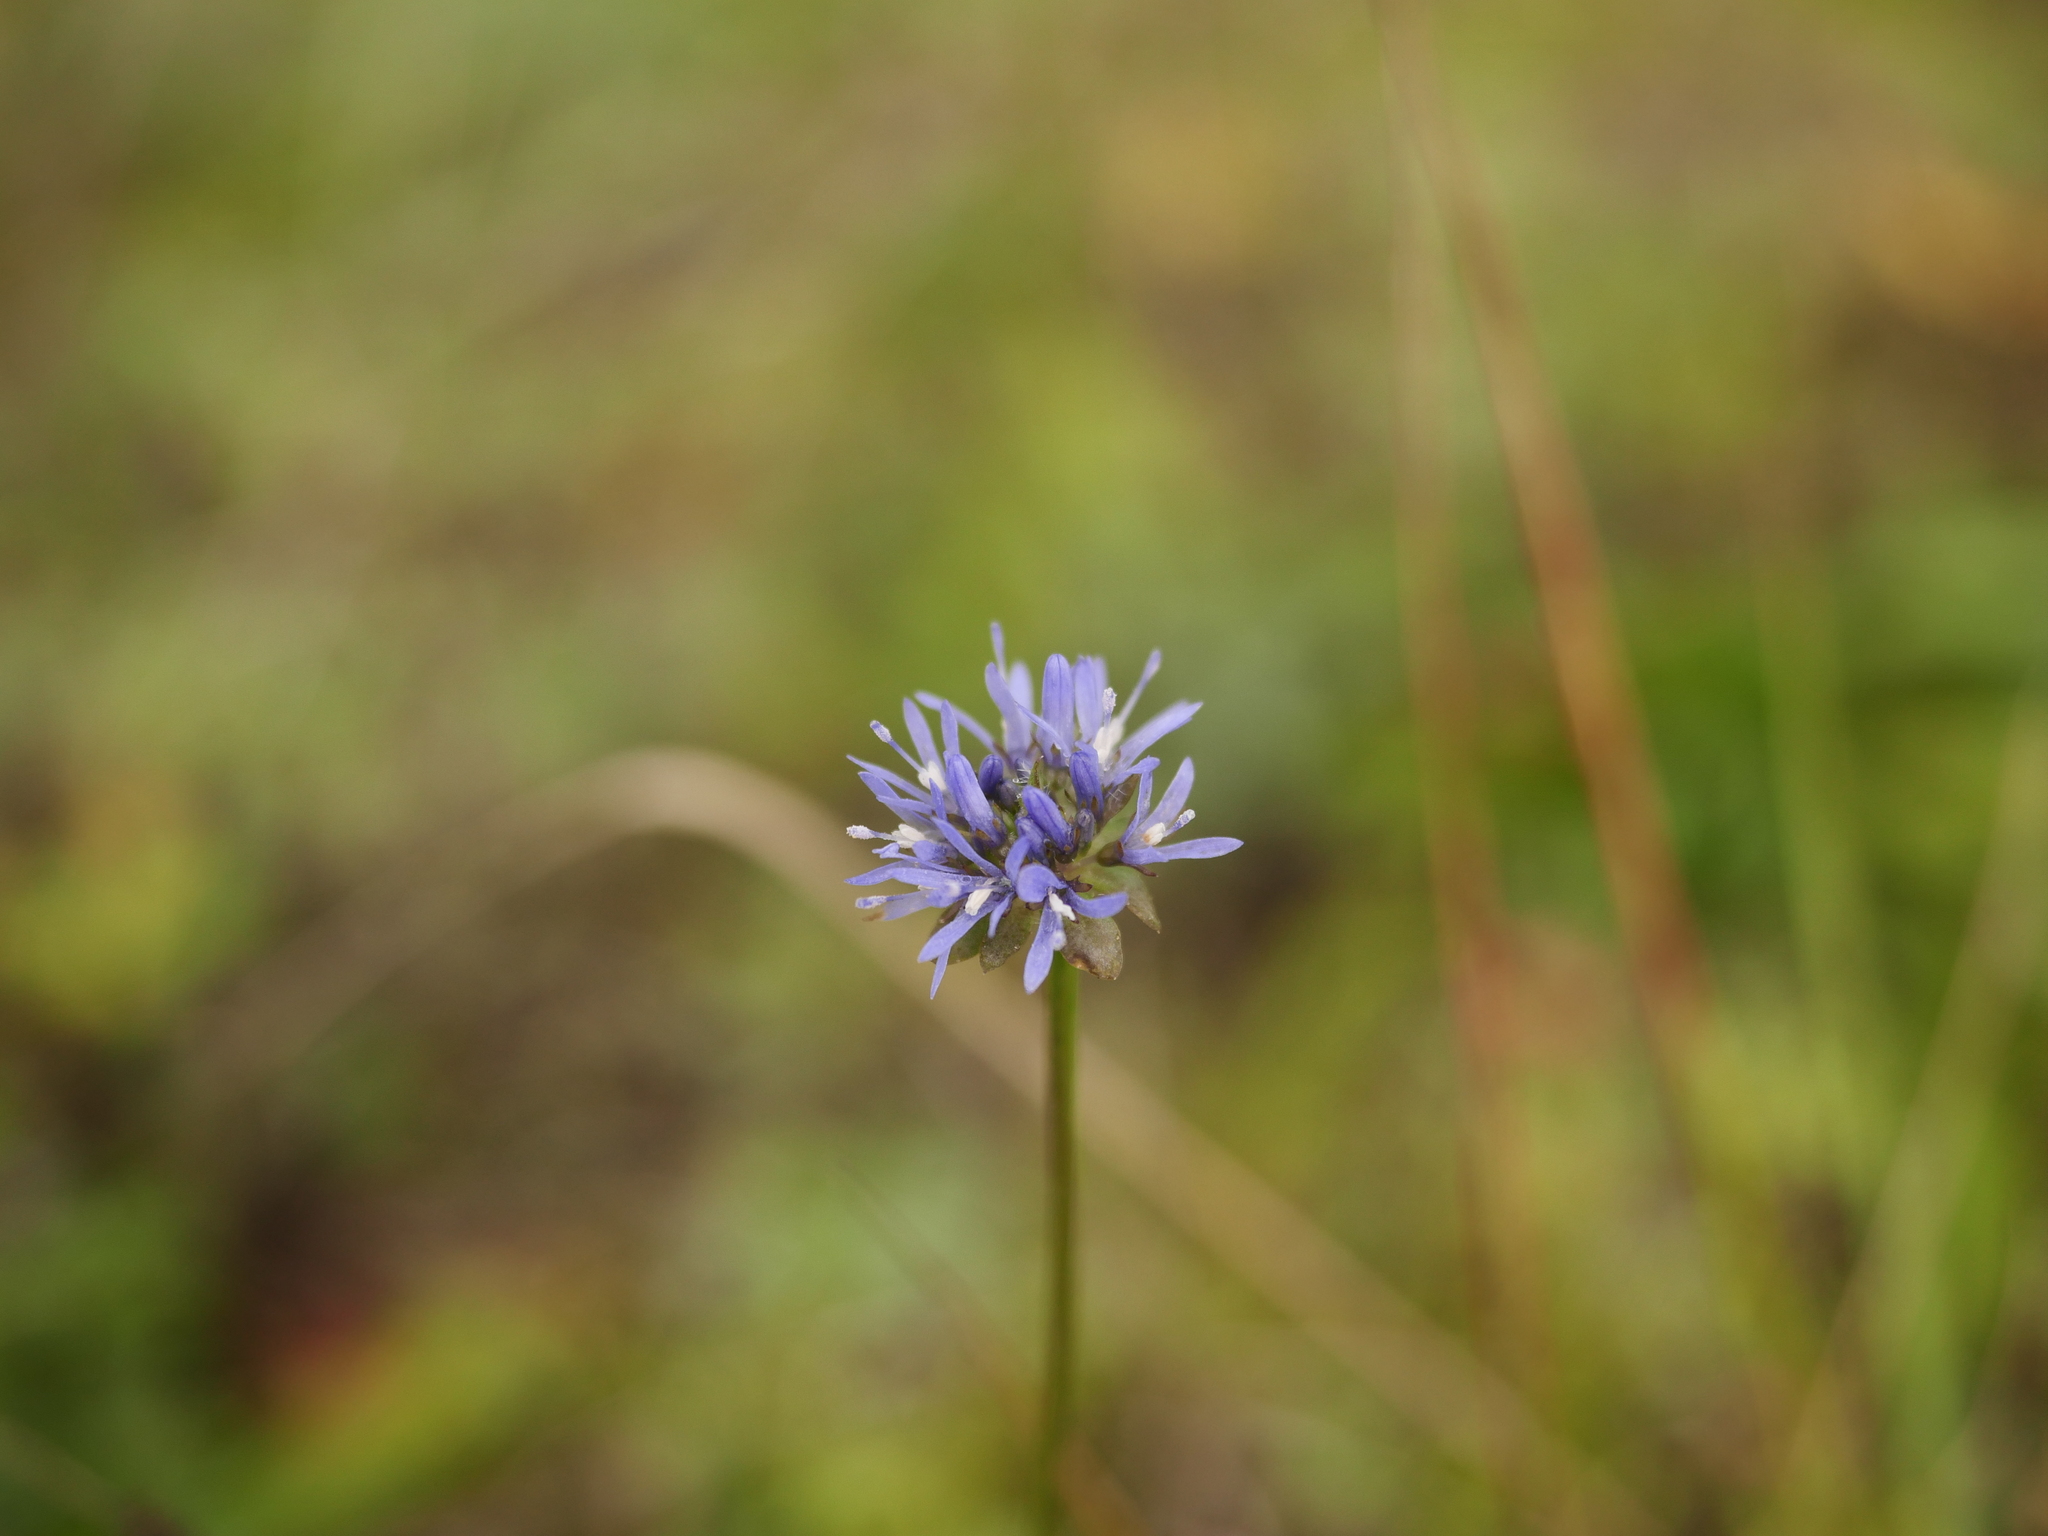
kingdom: Plantae
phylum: Tracheophyta
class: Magnoliopsida
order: Asterales
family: Campanulaceae
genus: Jasione
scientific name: Jasione montana
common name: Sheep's-bit
